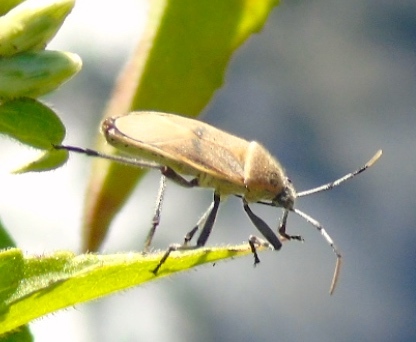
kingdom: Animalia
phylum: Arthropoda
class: Insecta
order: Hemiptera
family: Largidae
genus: Largus
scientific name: Largus
